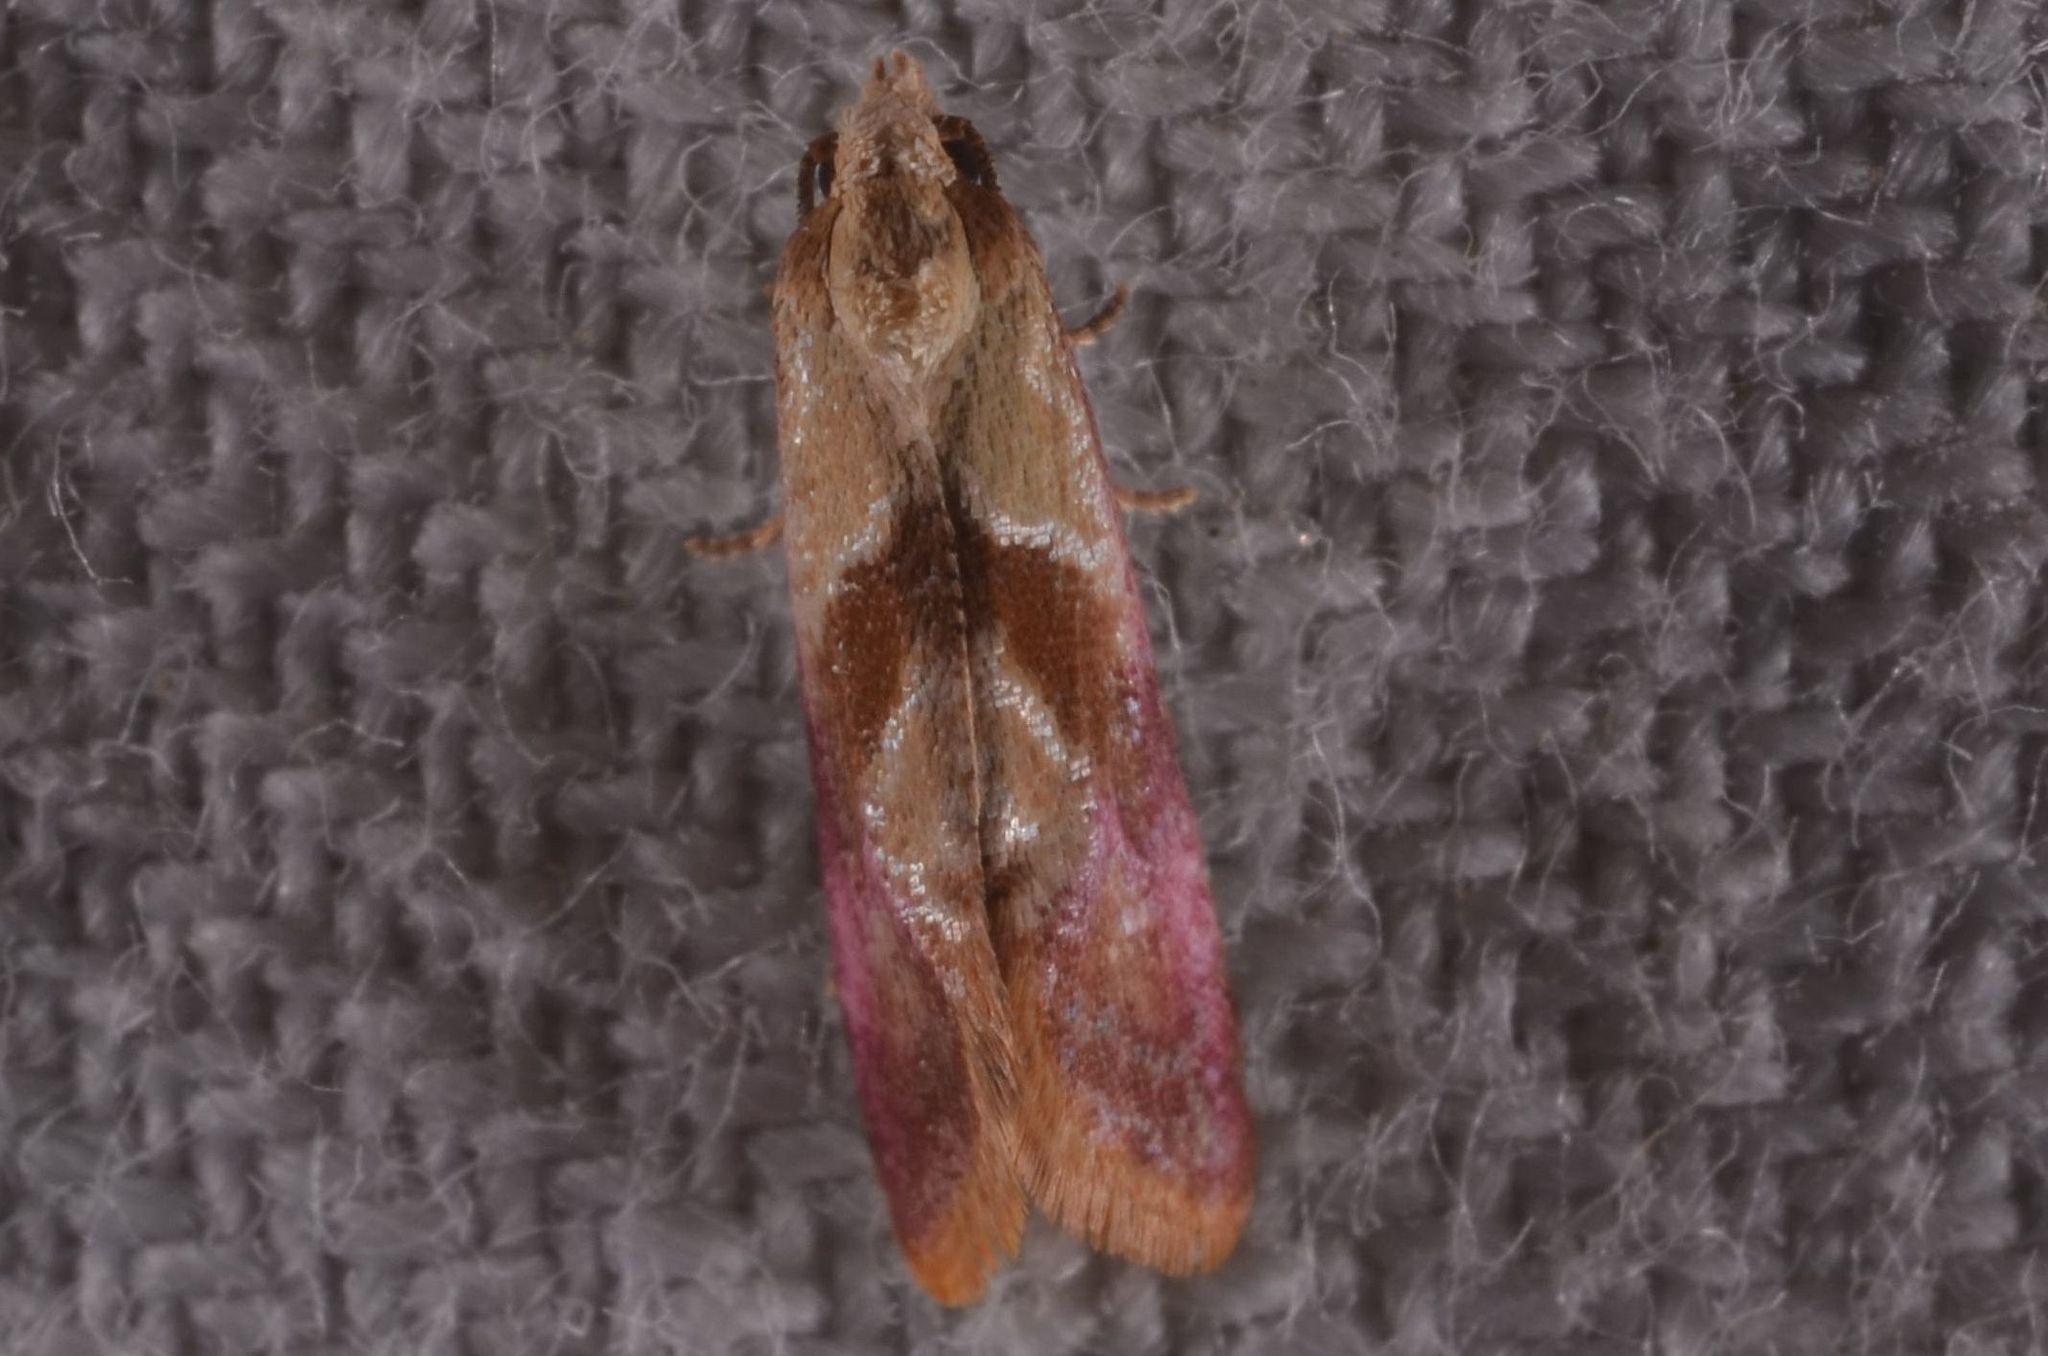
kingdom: Animalia
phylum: Arthropoda
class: Insecta
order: Lepidoptera
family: Tortricidae
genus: Cochylis
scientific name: Cochylis flaviciliana
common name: Gold-fringed conch
